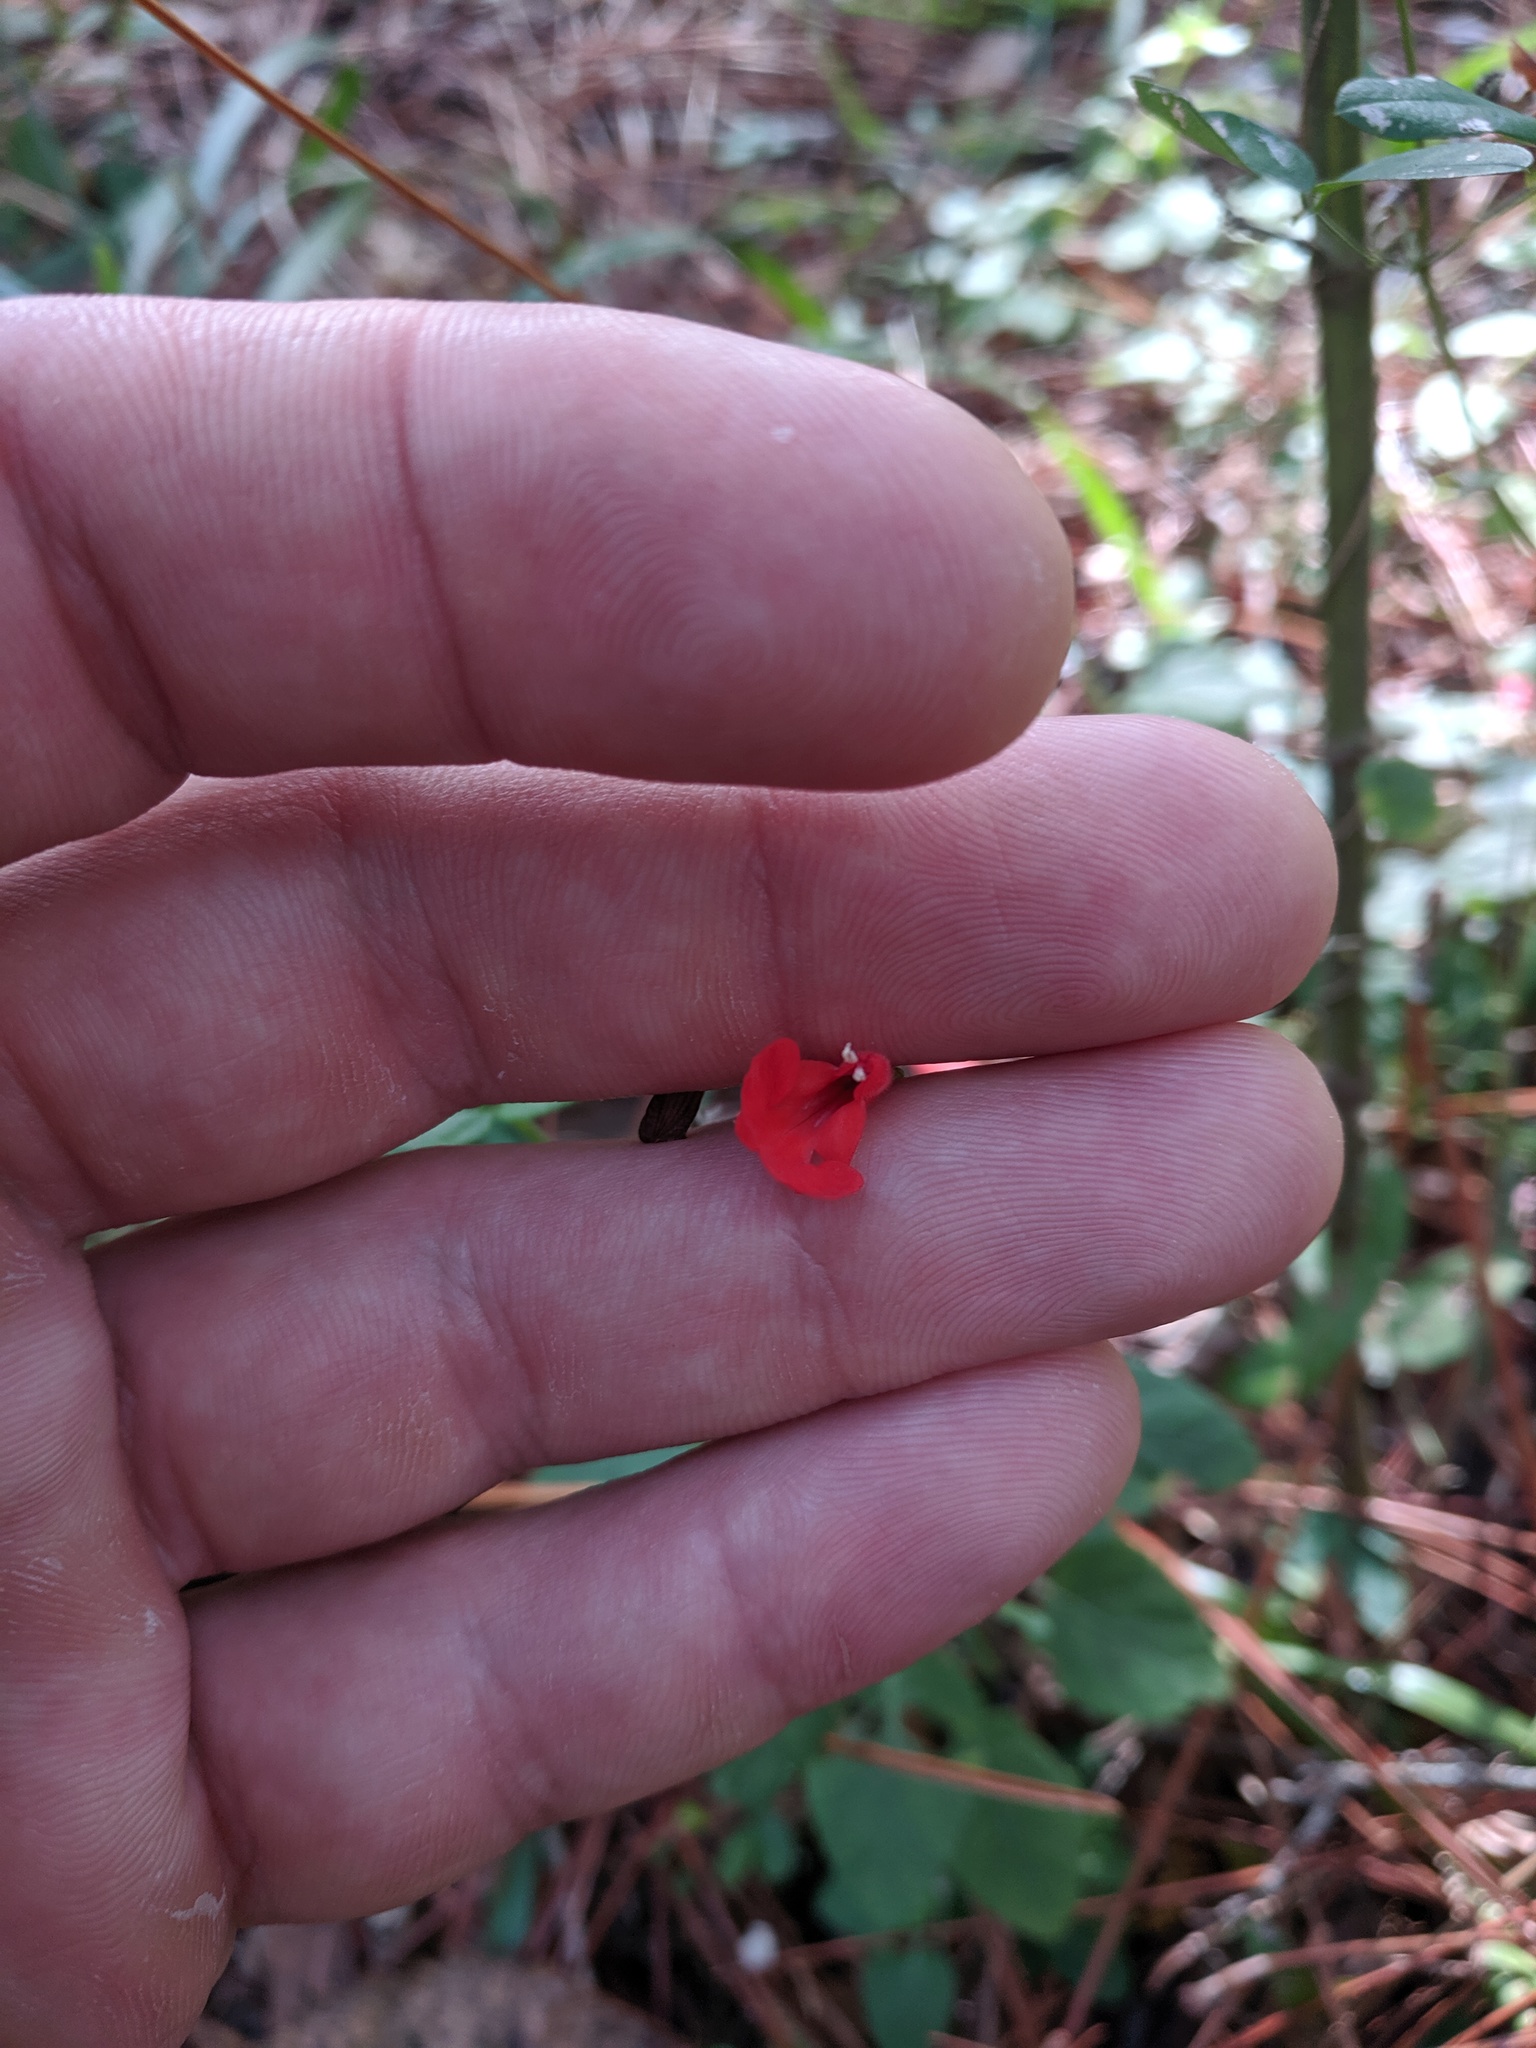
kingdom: Plantae
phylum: Tracheophyta
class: Magnoliopsida
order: Lamiales
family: Lamiaceae
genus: Salvia
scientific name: Salvia coccinea
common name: Blood sage
